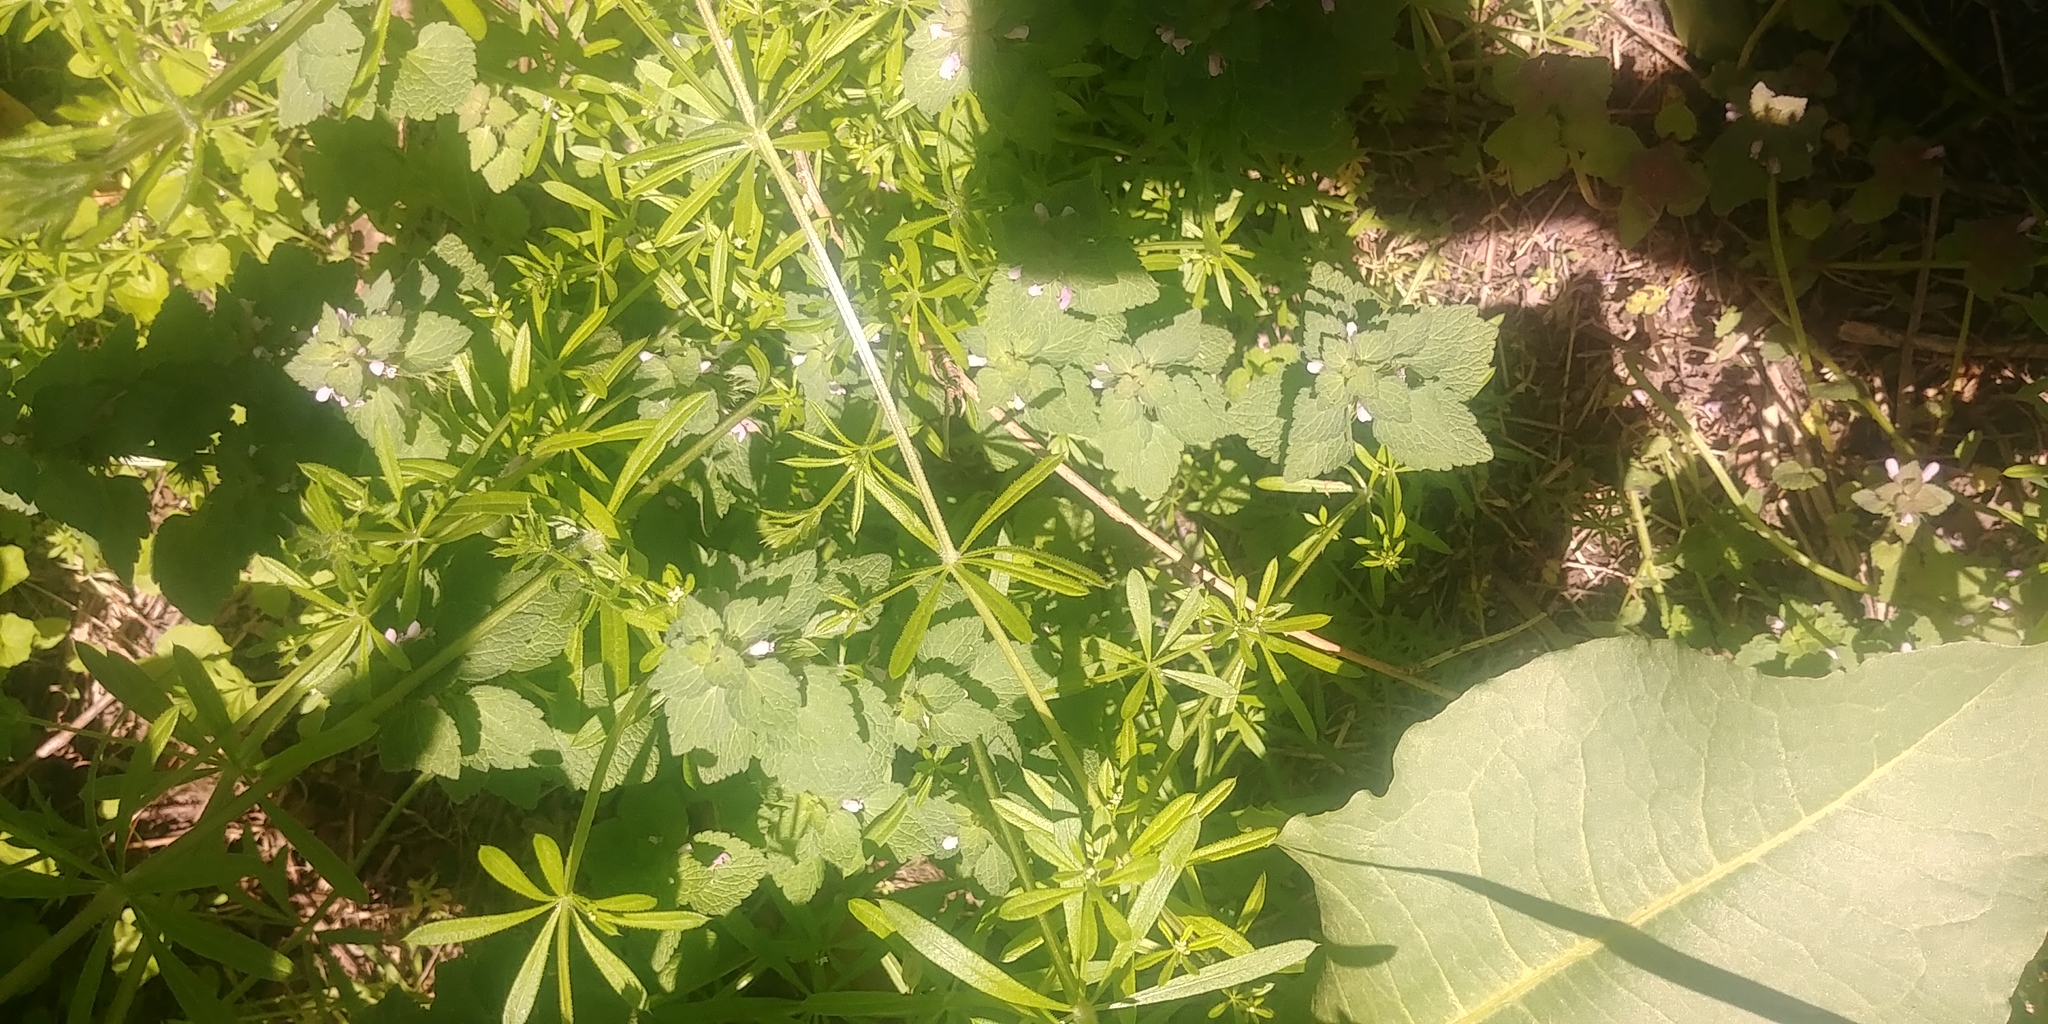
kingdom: Plantae
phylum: Tracheophyta
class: Magnoliopsida
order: Gentianales
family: Rubiaceae
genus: Galium
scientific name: Galium aparine
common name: Cleavers
